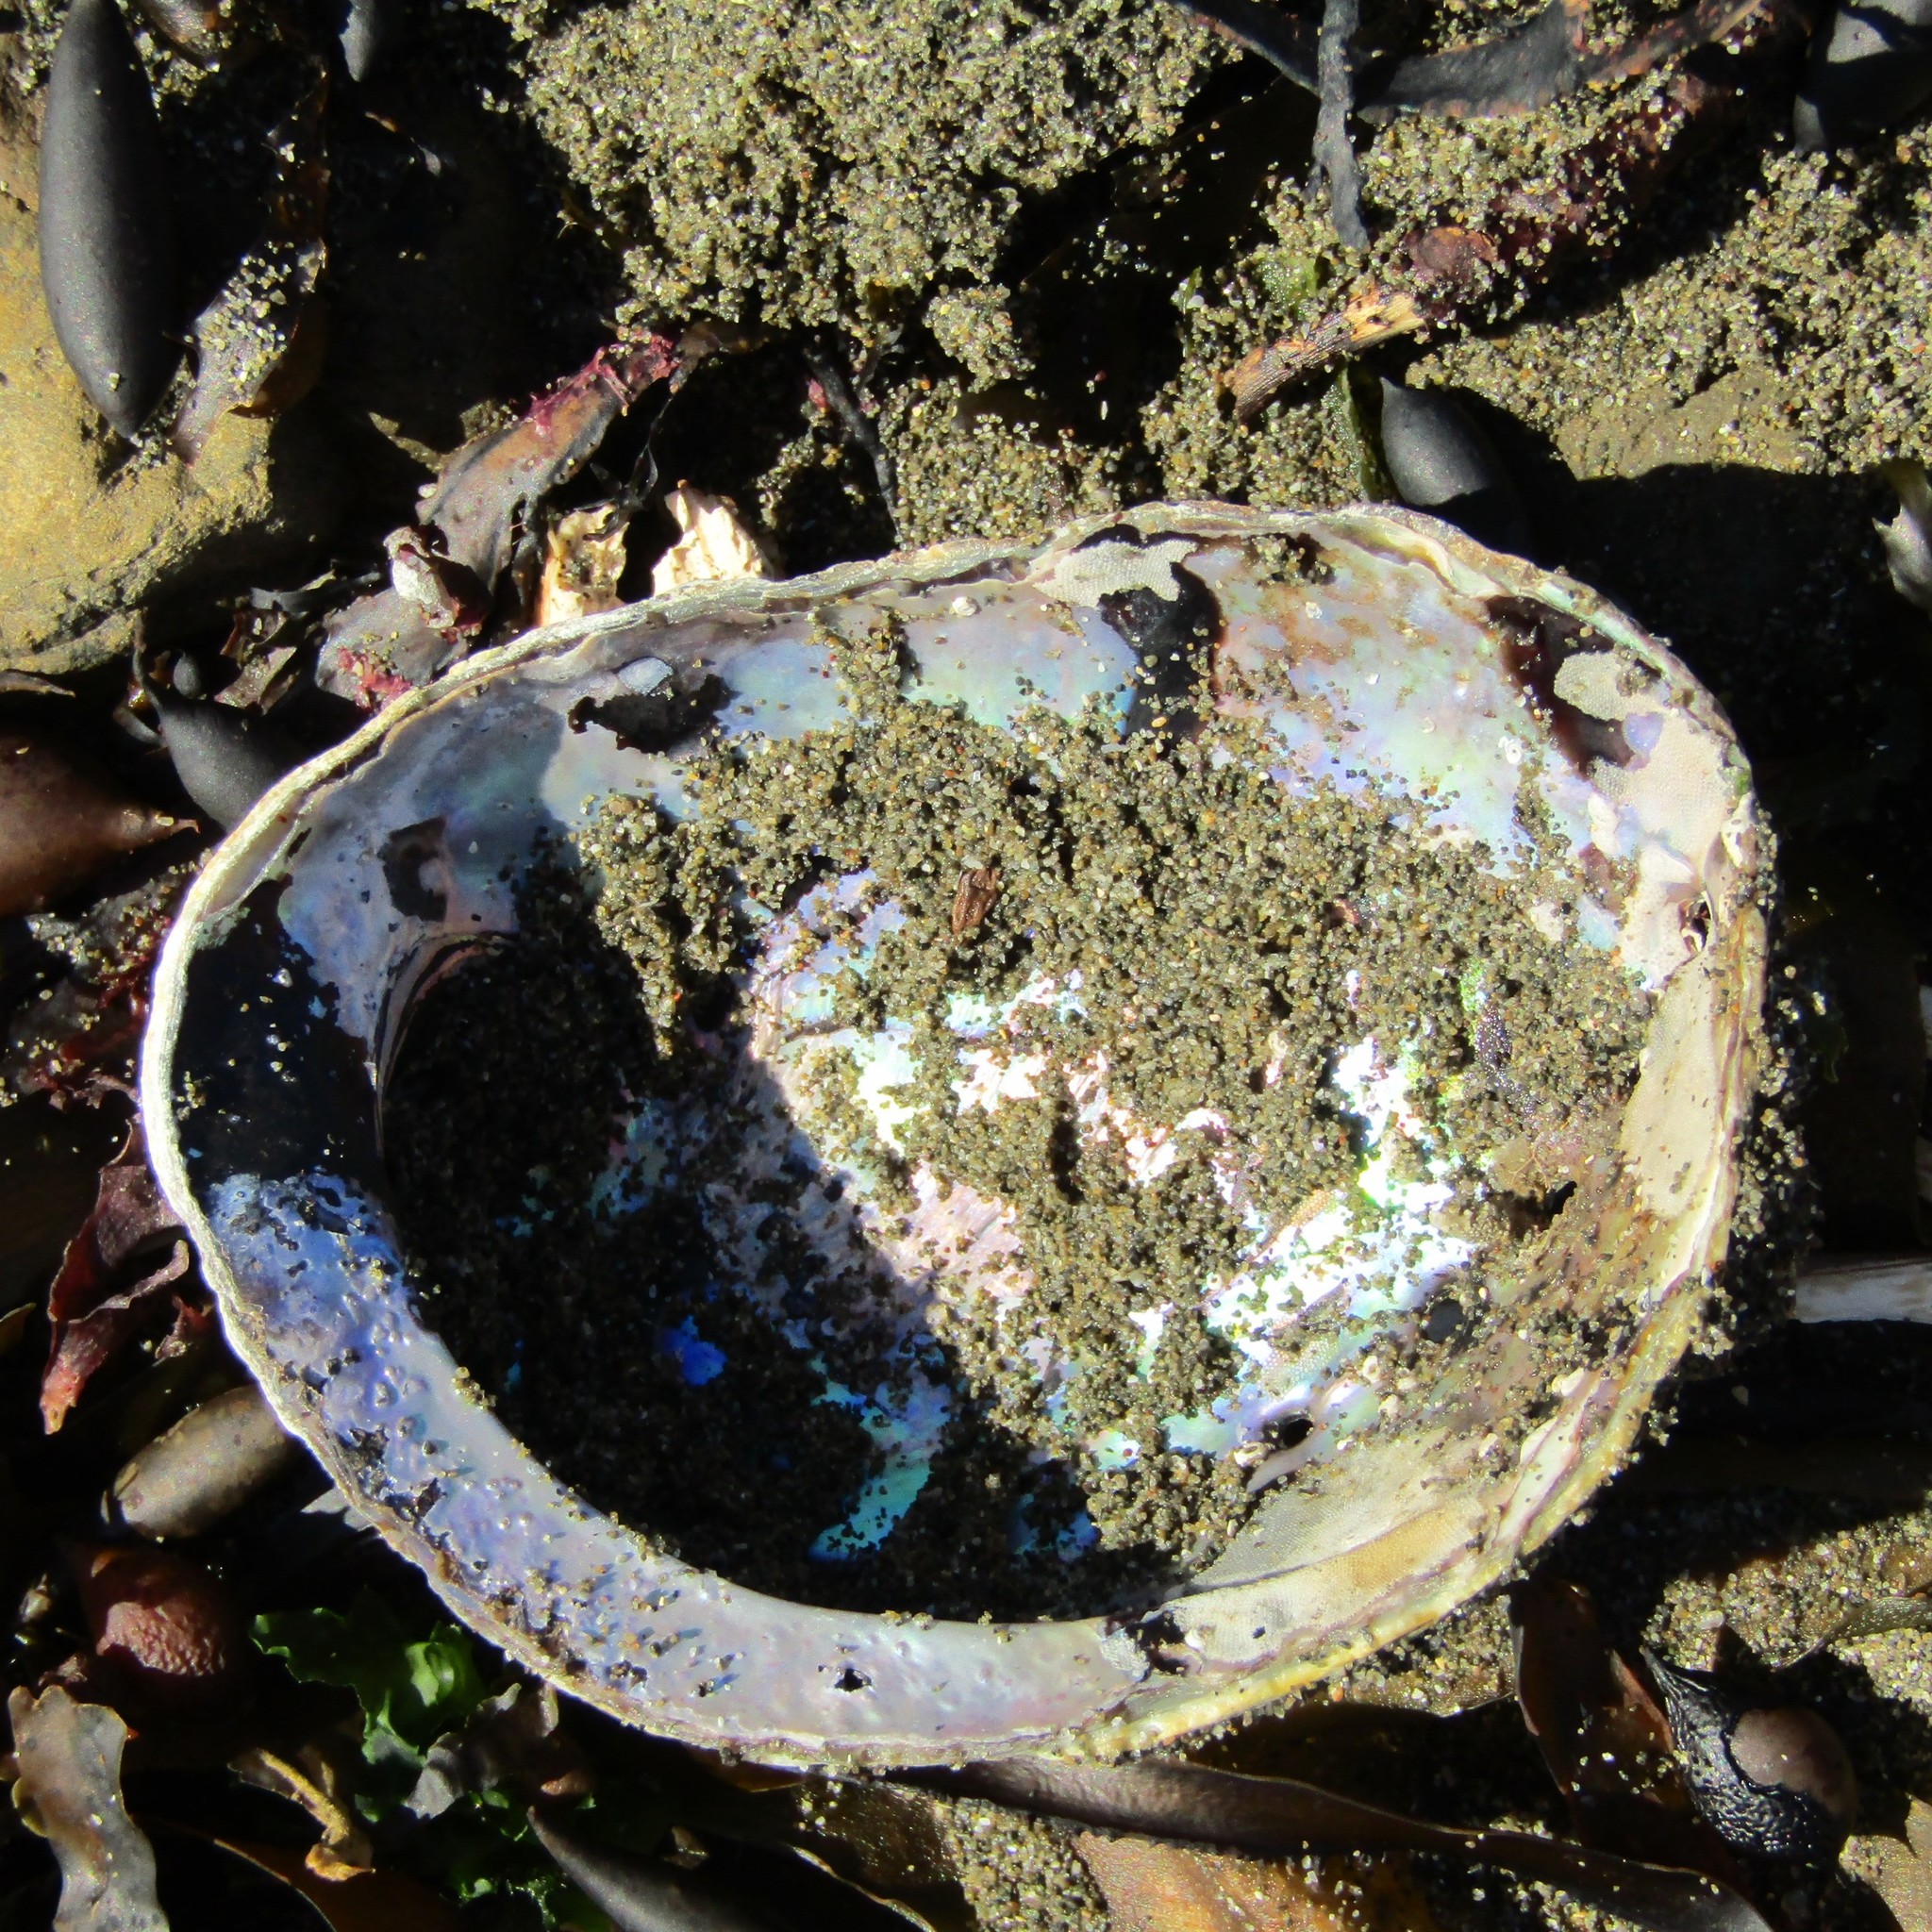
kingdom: Animalia
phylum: Mollusca
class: Gastropoda
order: Lepetellida
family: Haliotidae
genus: Haliotis
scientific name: Haliotis iris
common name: Abalone
